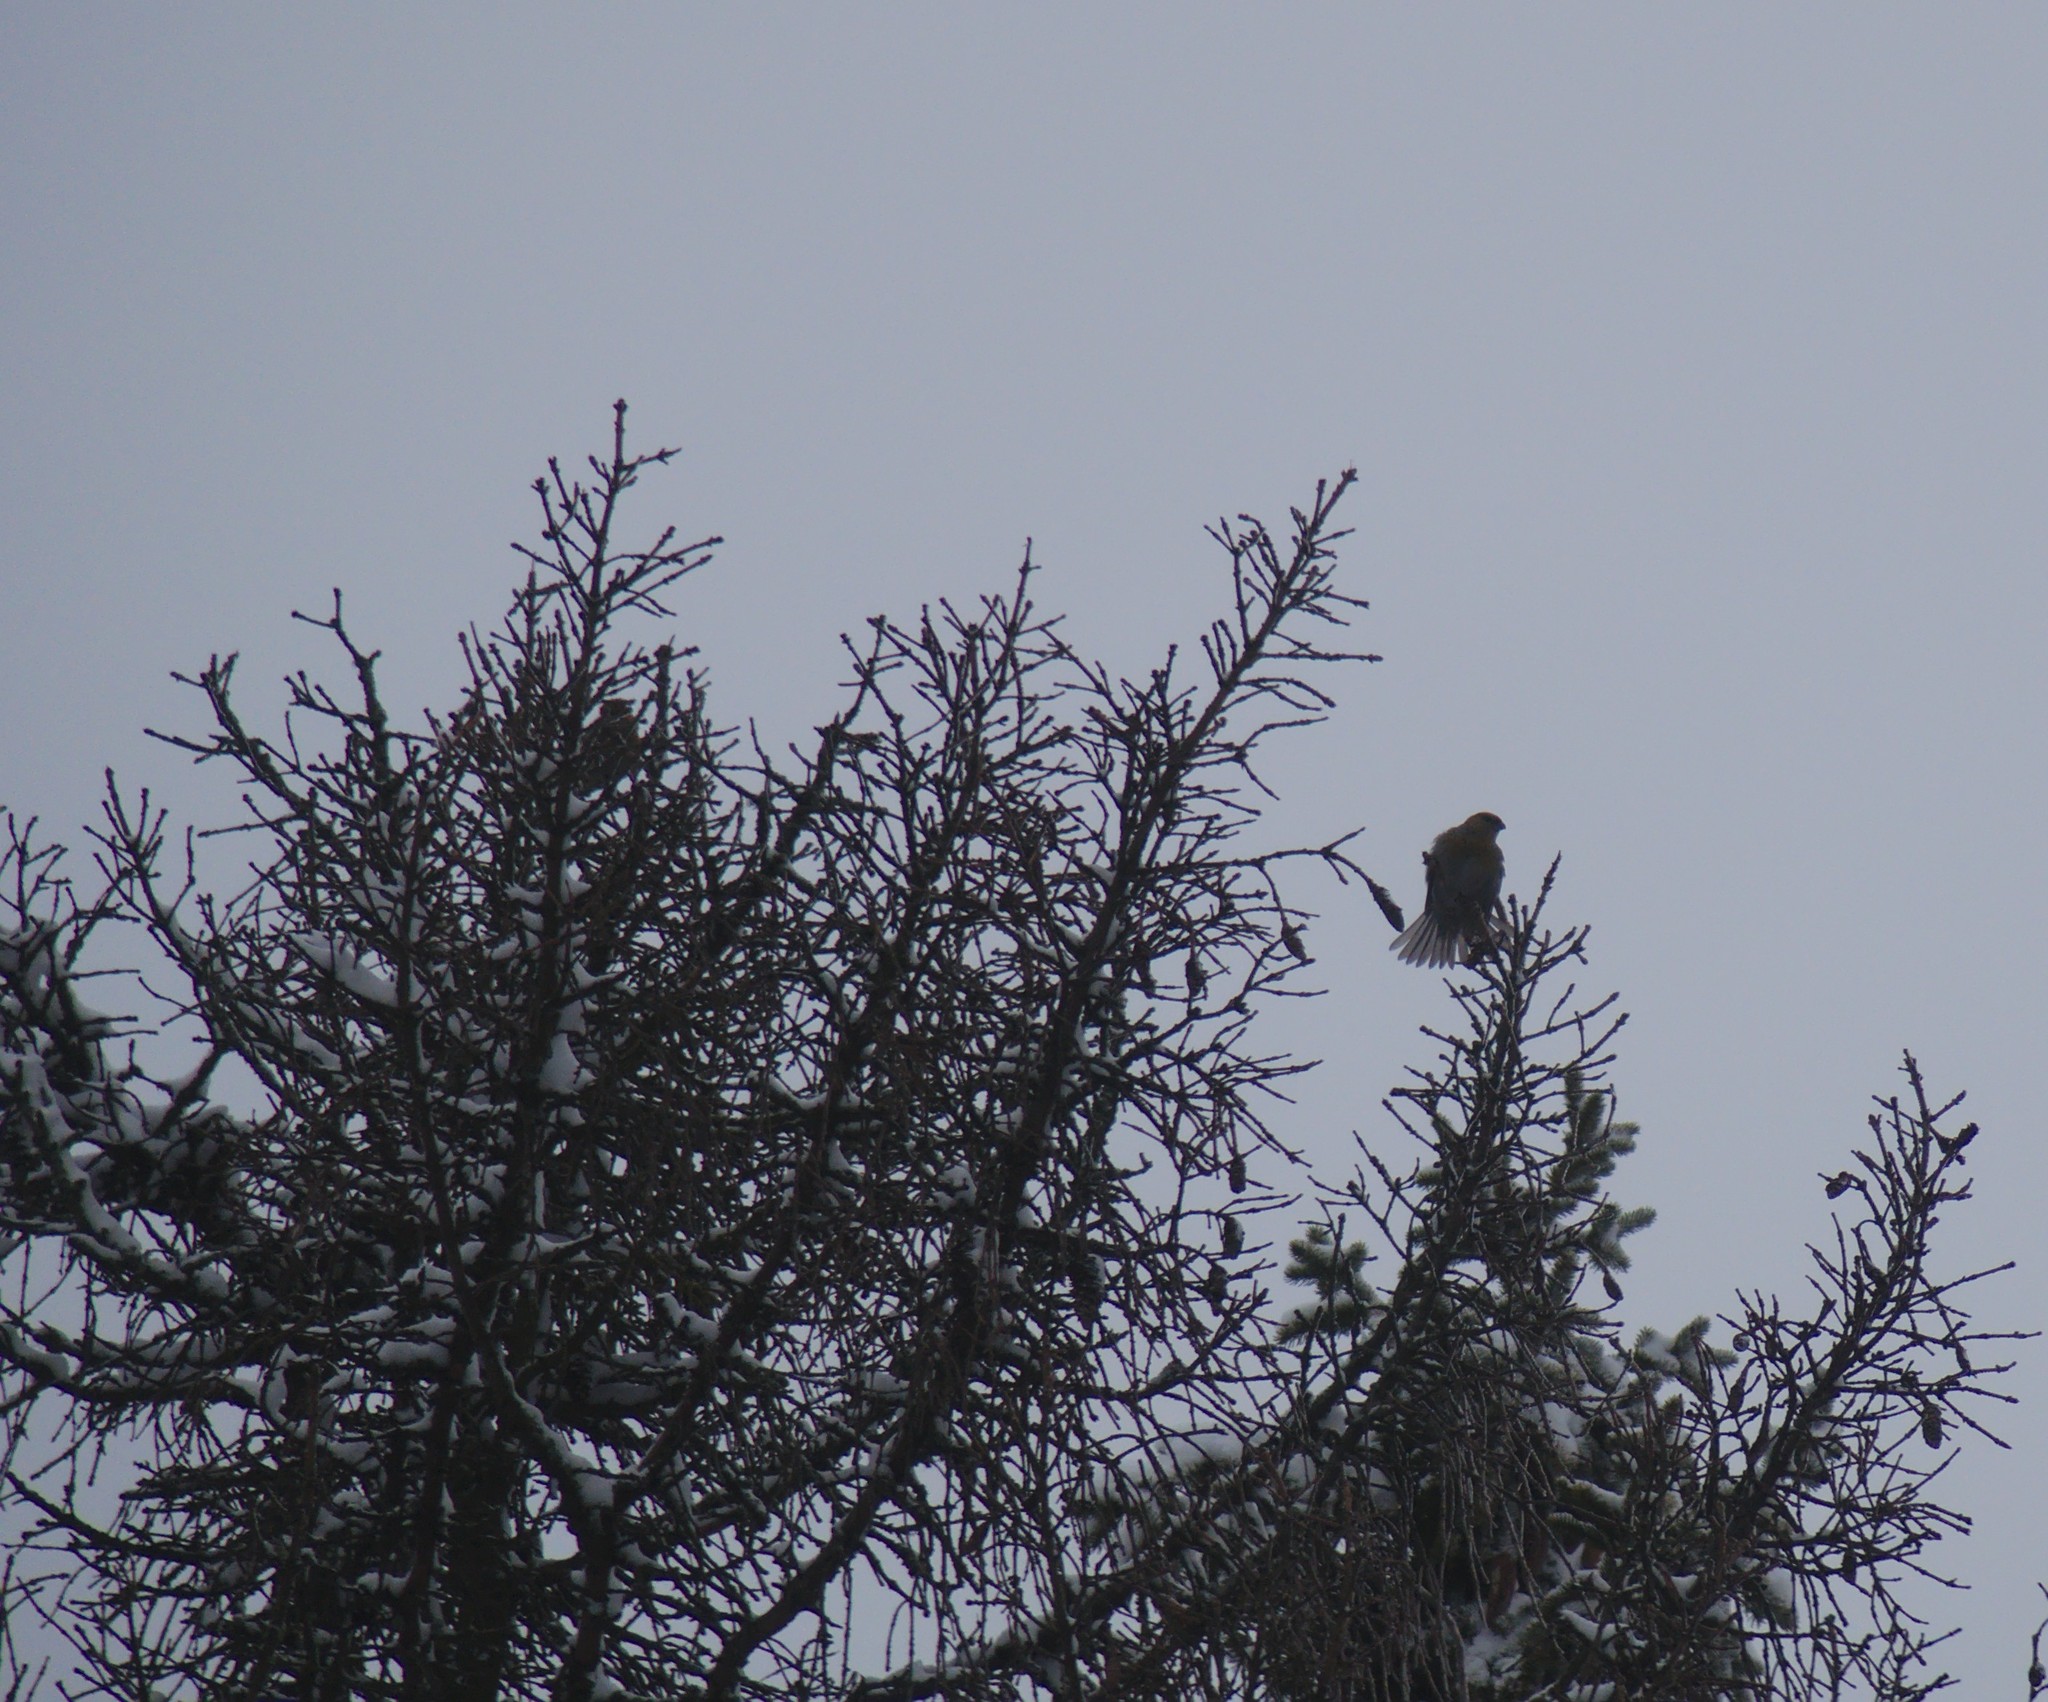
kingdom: Animalia
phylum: Chordata
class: Aves
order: Passeriformes
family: Fringillidae
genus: Pinicola
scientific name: Pinicola enucleator
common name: Pine grosbeak
